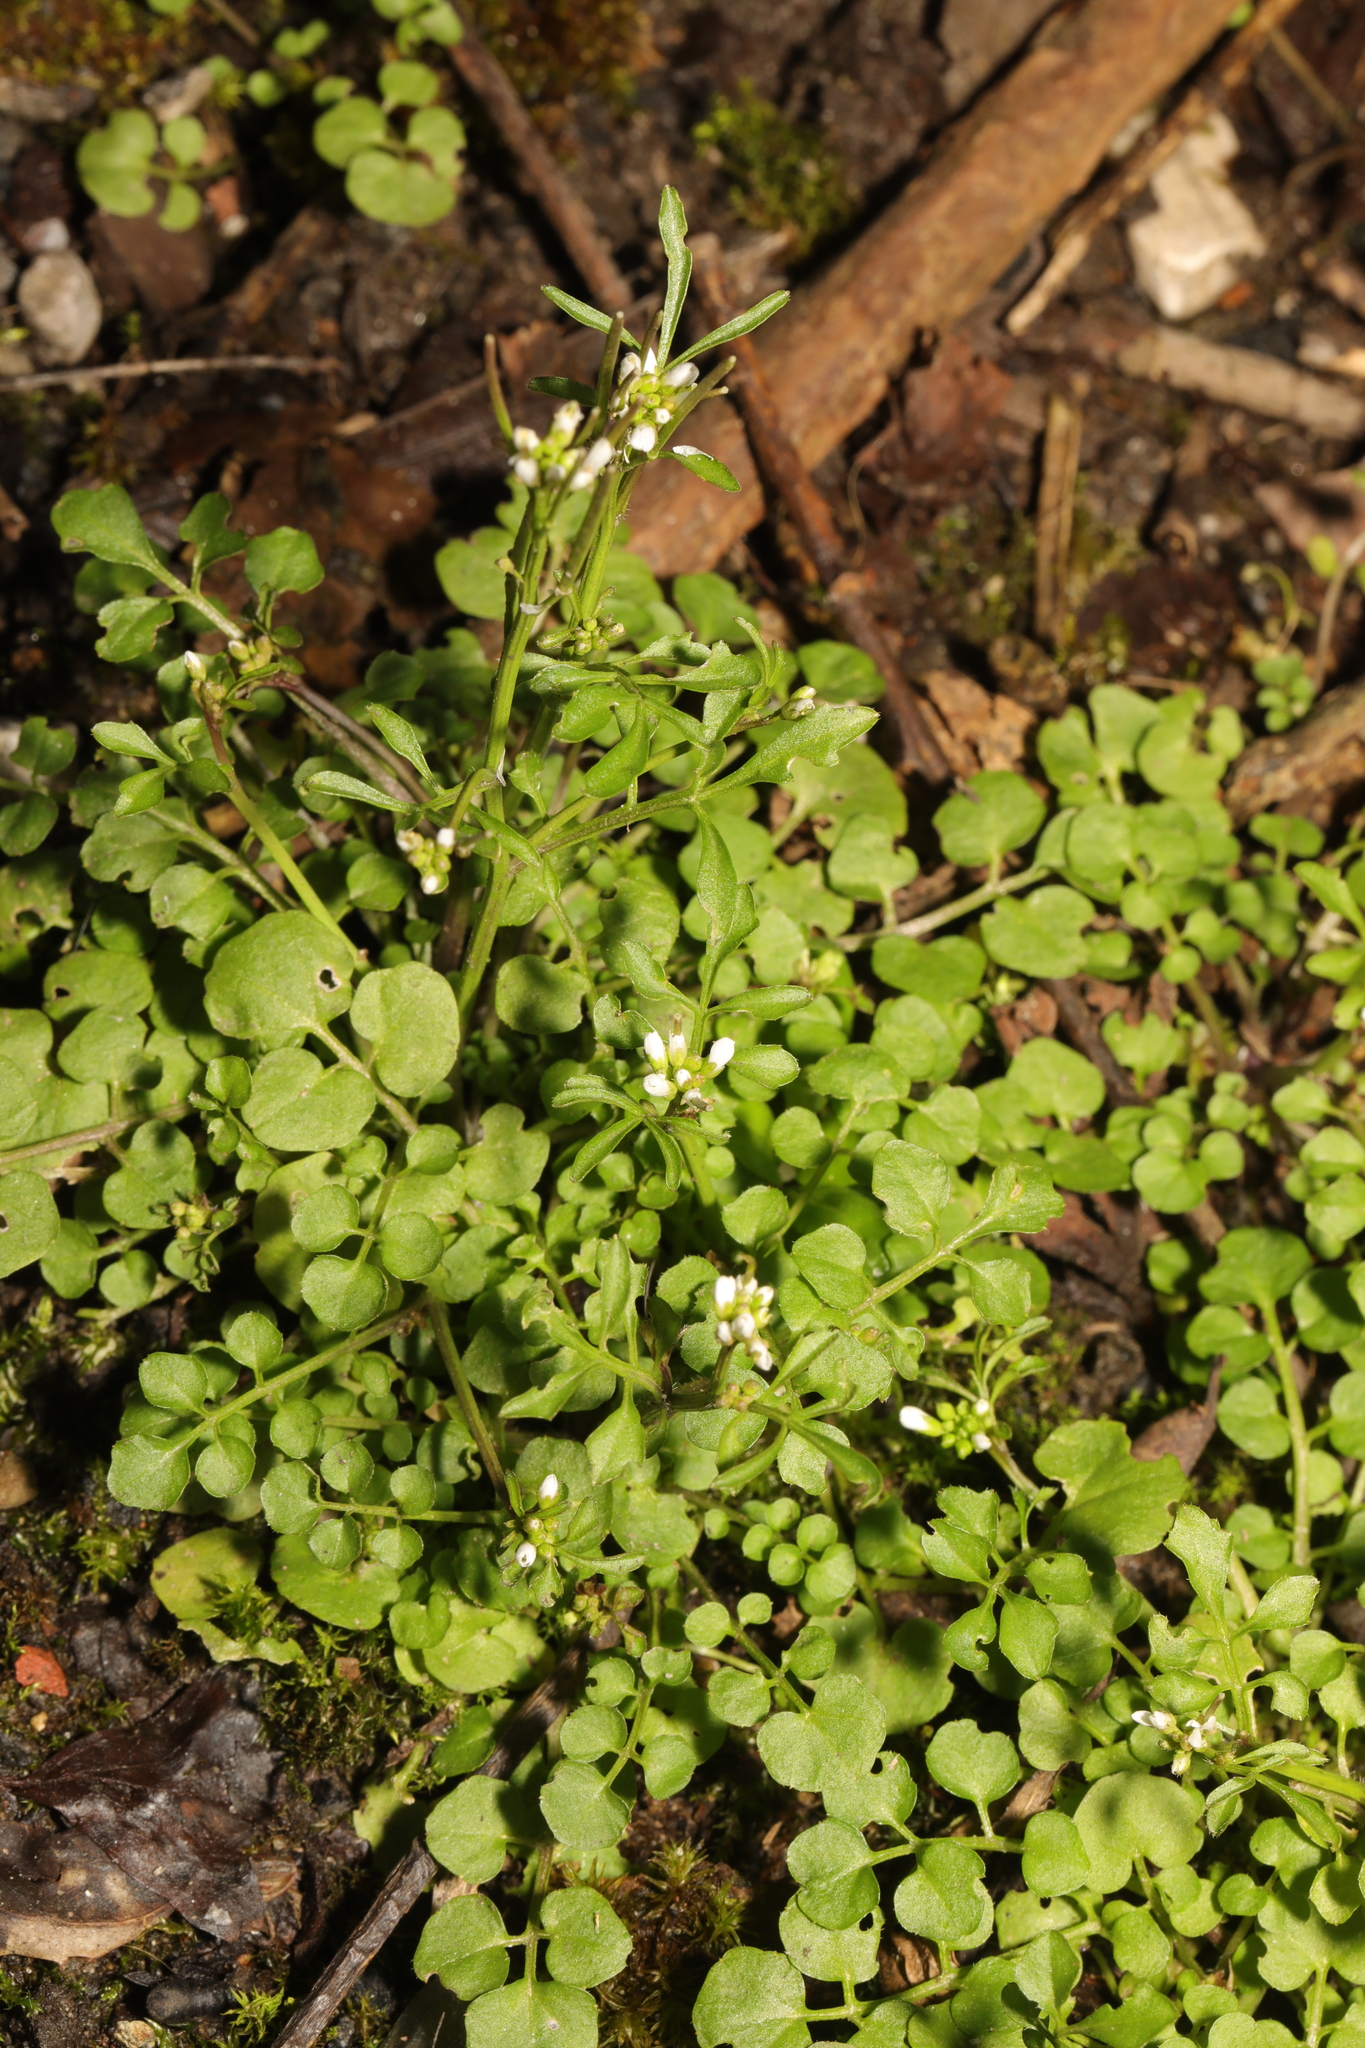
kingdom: Plantae
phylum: Tracheophyta
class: Magnoliopsida
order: Brassicales
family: Brassicaceae
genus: Cardamine
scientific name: Cardamine flexuosa
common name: Woodland bittercress
